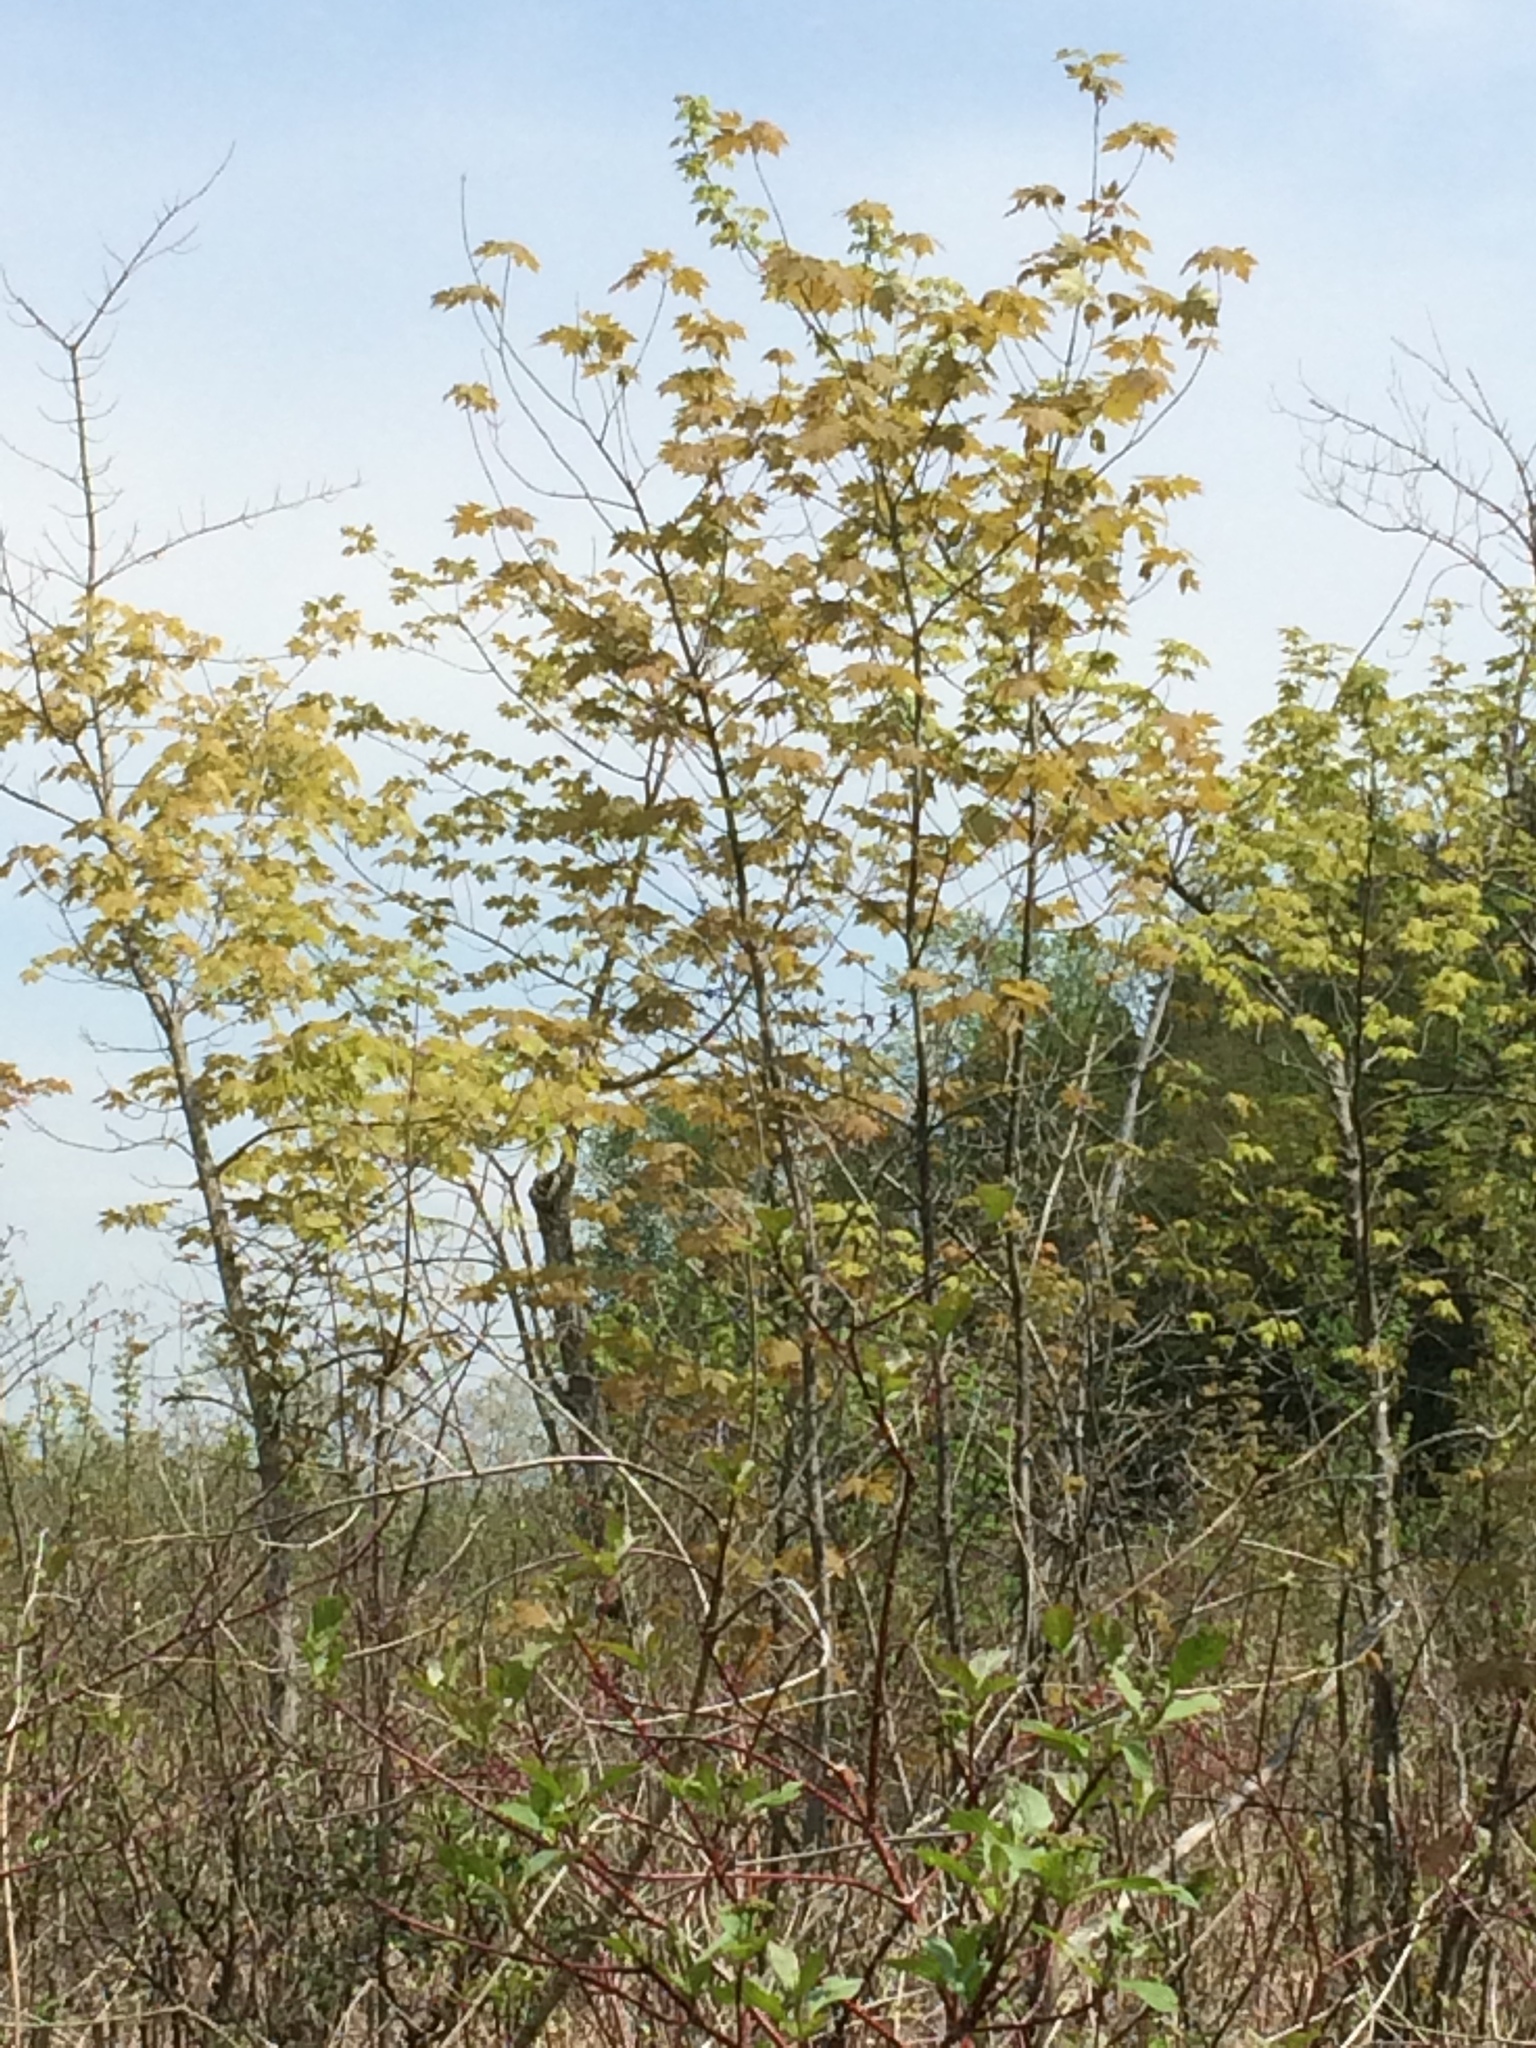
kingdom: Plantae
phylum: Tracheophyta
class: Magnoliopsida
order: Sapindales
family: Sapindaceae
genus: Acer
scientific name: Acer saccharinum
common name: Silver maple
